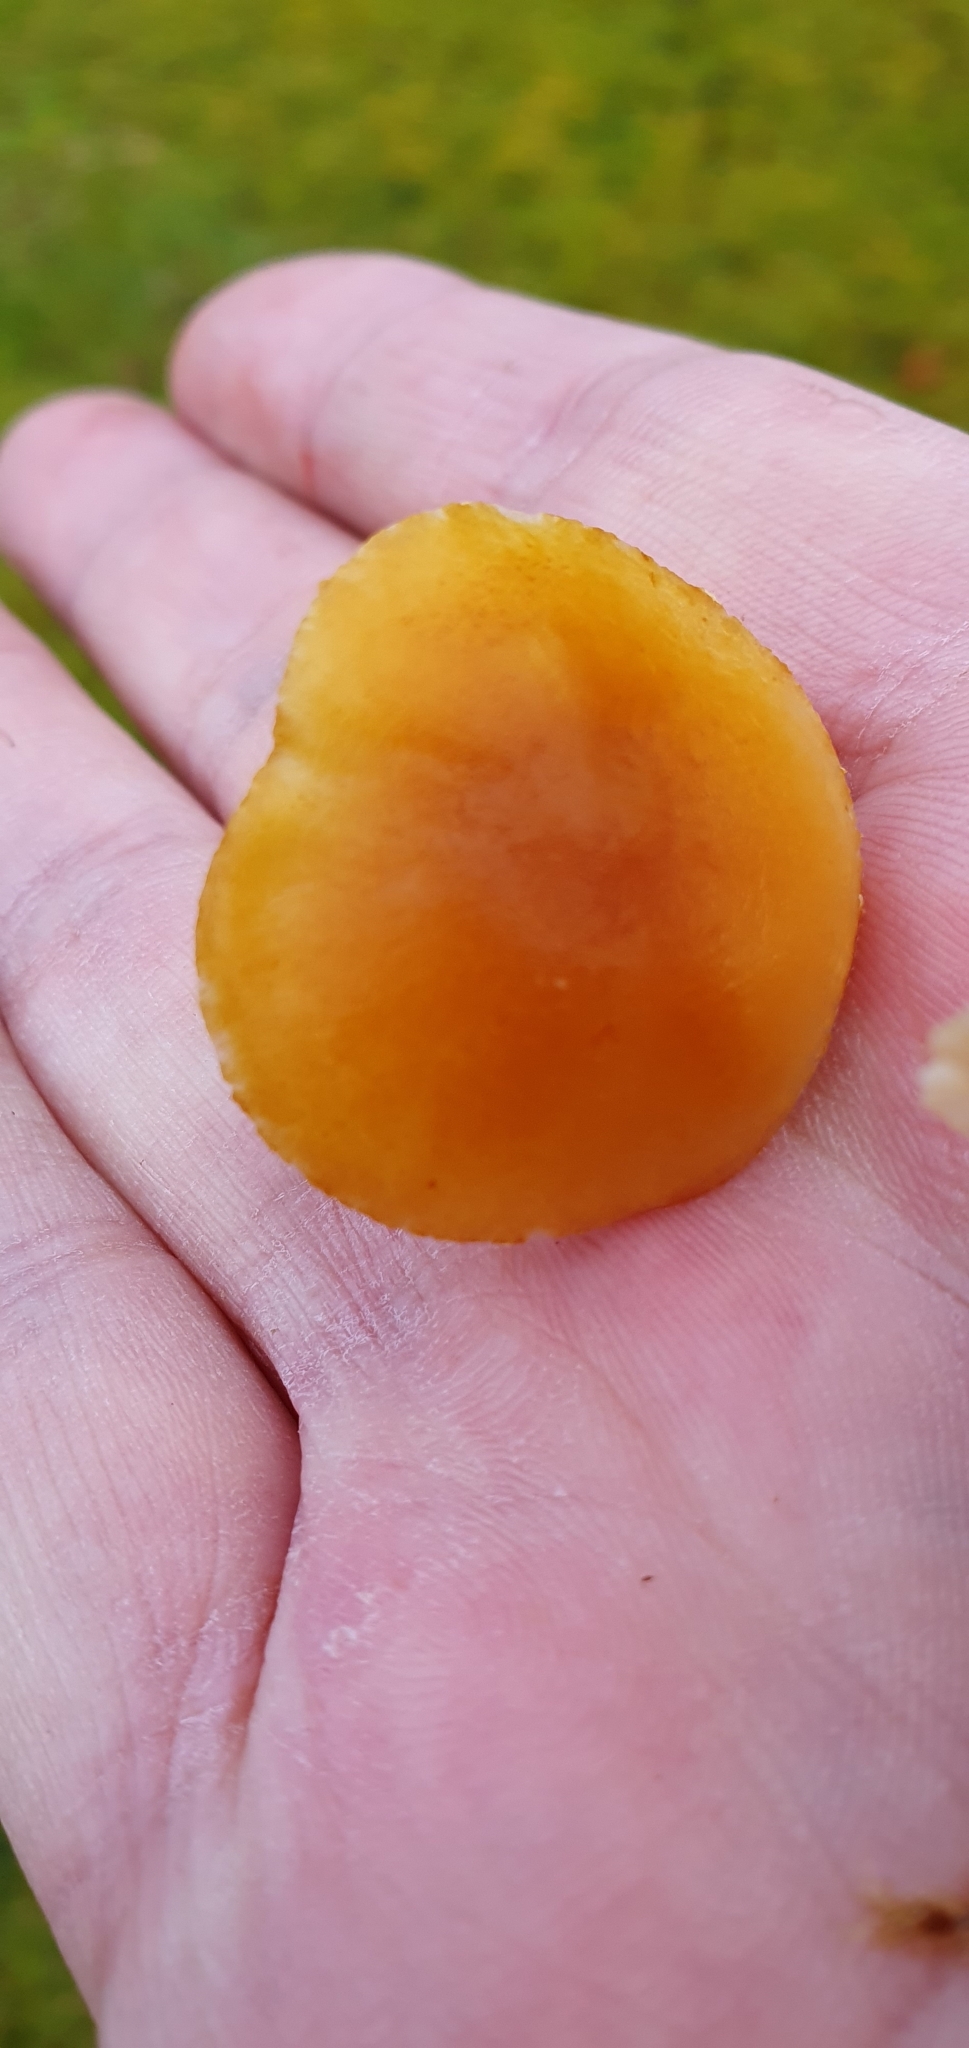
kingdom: Fungi
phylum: Basidiomycota
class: Agaricomycetes
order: Agaricales
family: Tricholomataceae
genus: Cystoderma
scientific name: Cystoderma amianthinum
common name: Earthy powdercap
